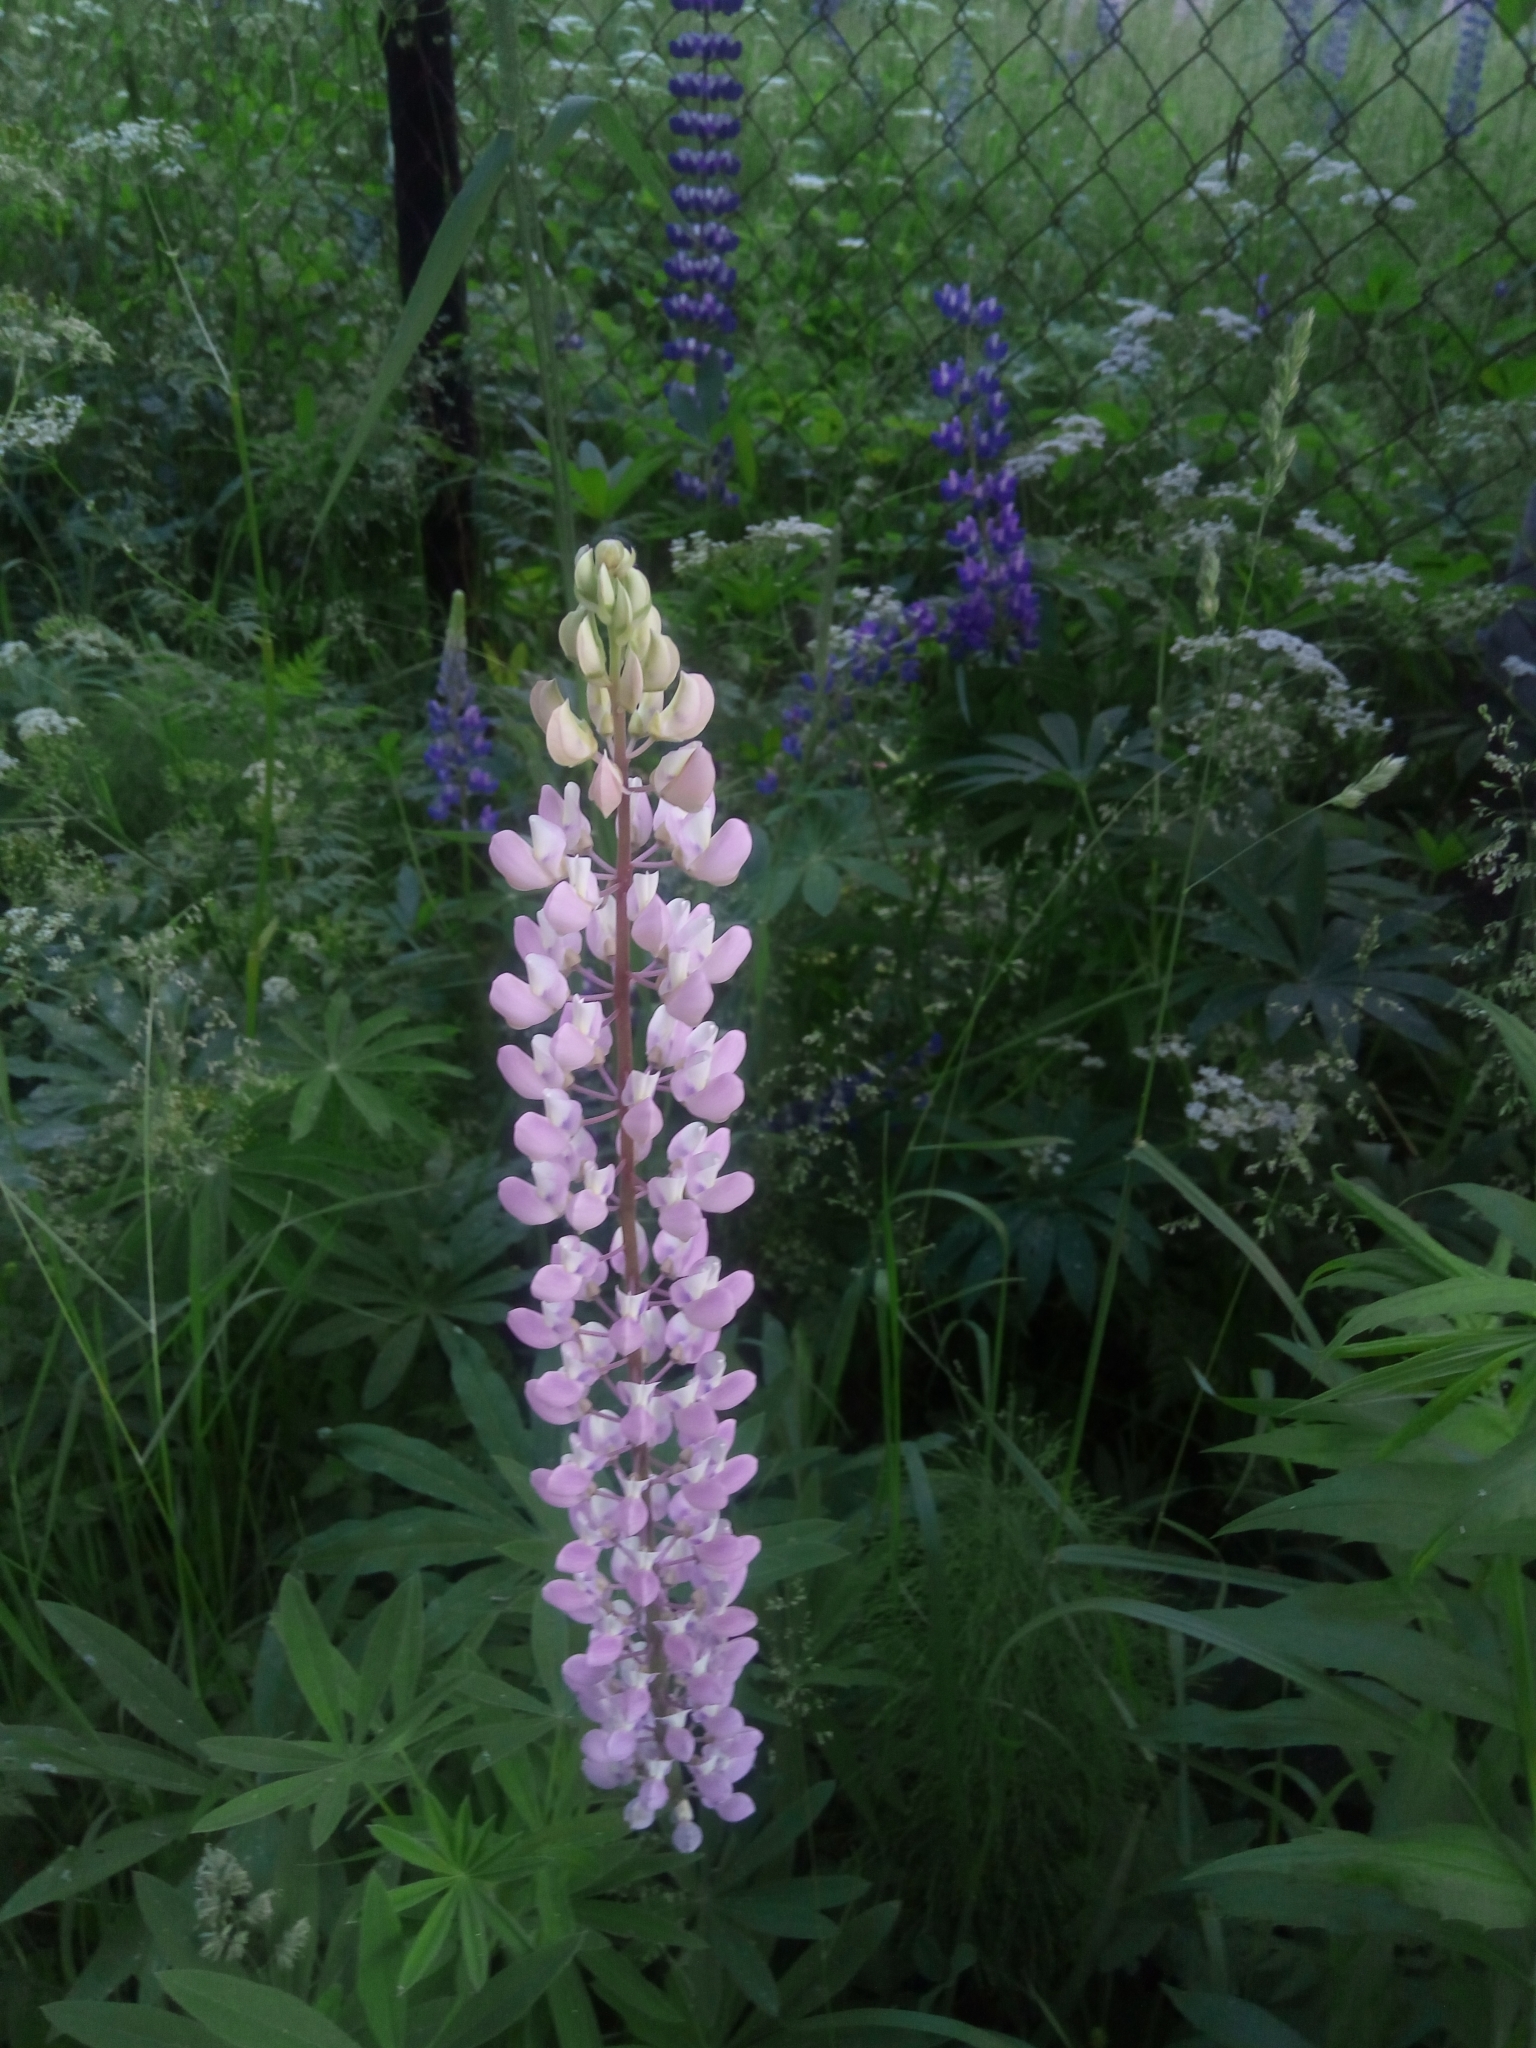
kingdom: Plantae
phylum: Tracheophyta
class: Magnoliopsida
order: Fabales
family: Fabaceae
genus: Lupinus
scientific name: Lupinus polyphyllus
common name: Garden lupin
